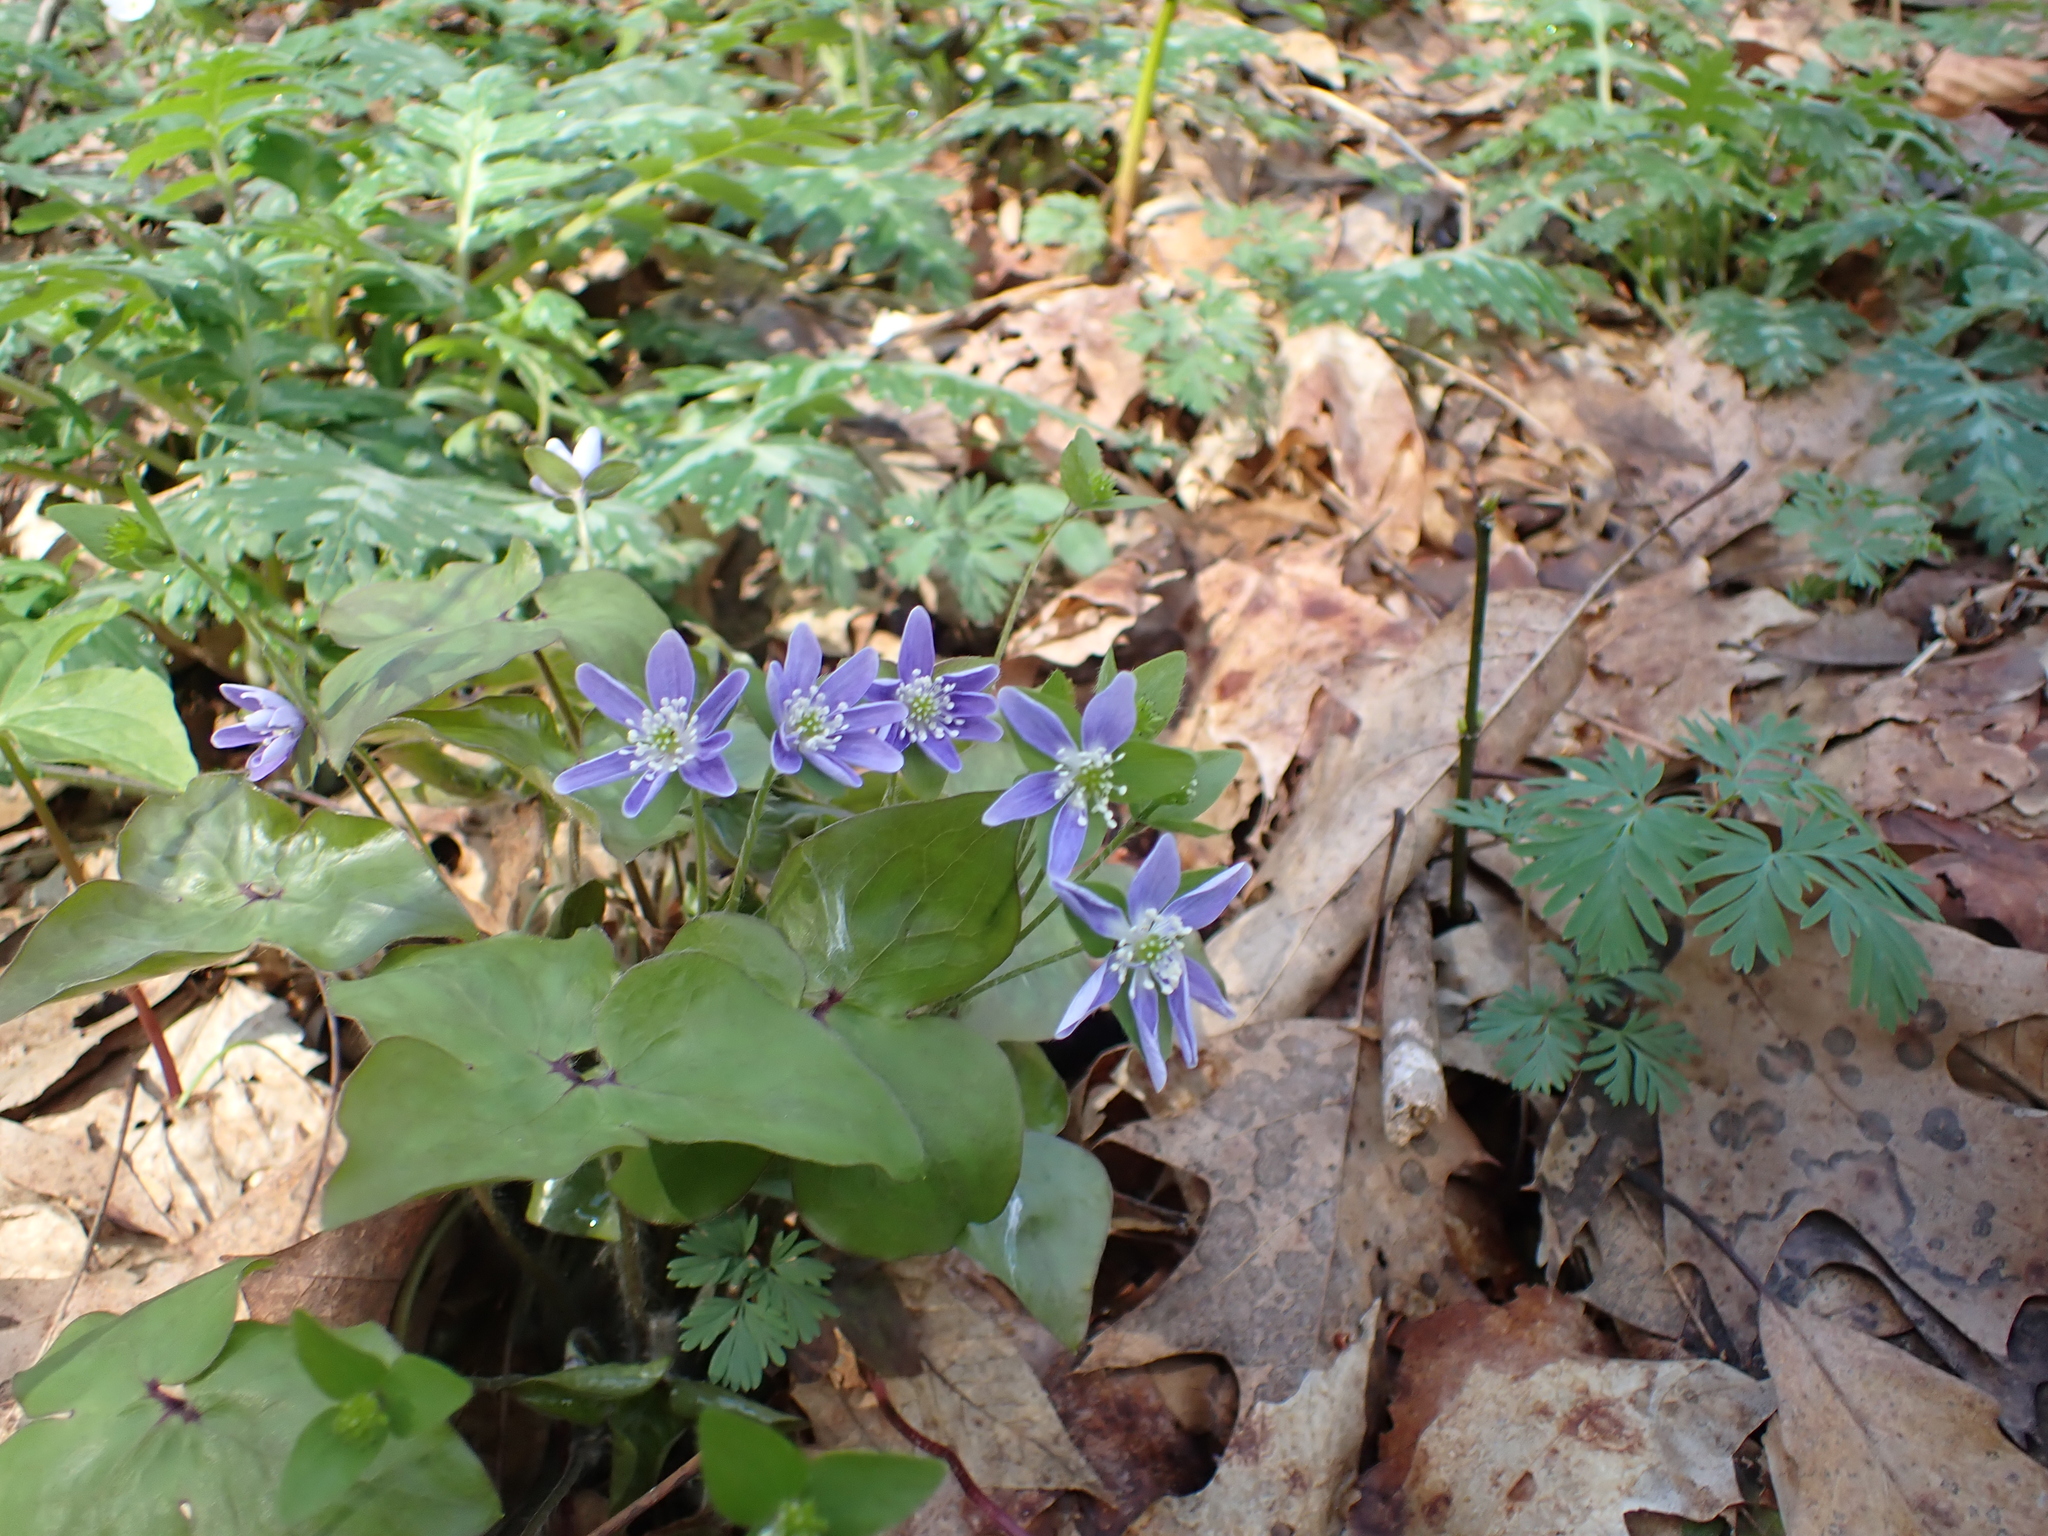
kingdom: Plantae
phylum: Tracheophyta
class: Magnoliopsida
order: Ranunculales
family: Ranunculaceae
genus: Hepatica
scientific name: Hepatica acutiloba
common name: Sharp-lobed hepatica
